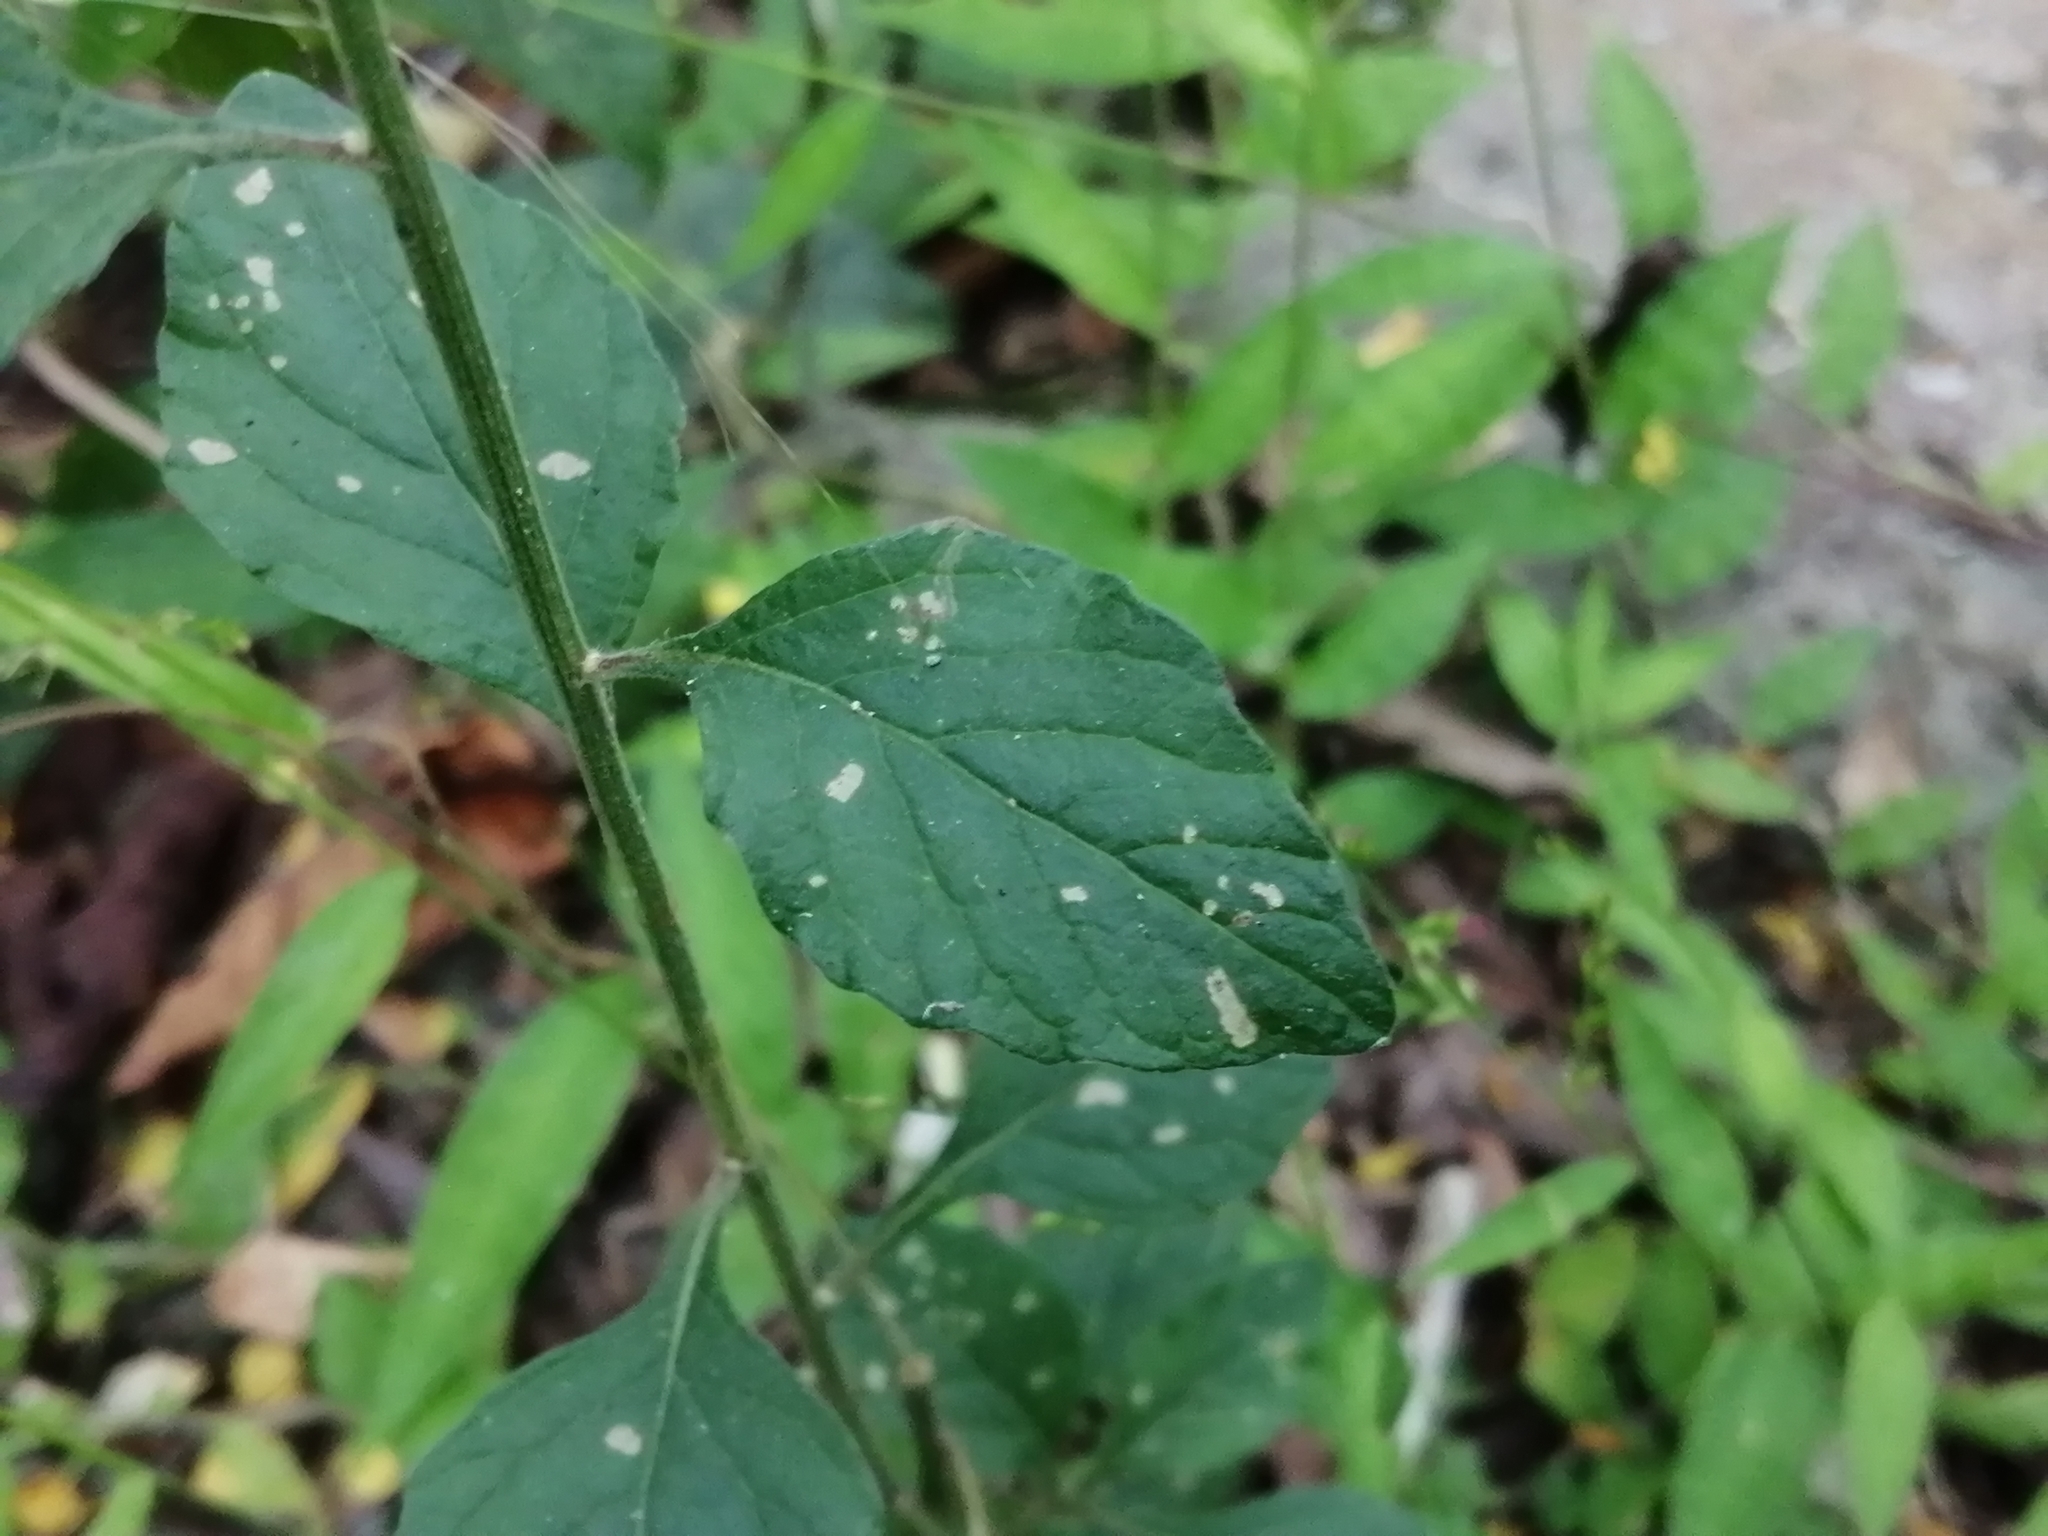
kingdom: Plantae
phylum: Tracheophyta
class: Magnoliopsida
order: Asterales
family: Asteraceae
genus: Cyanthillium
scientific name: Cyanthillium cinereum
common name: Little ironweed
